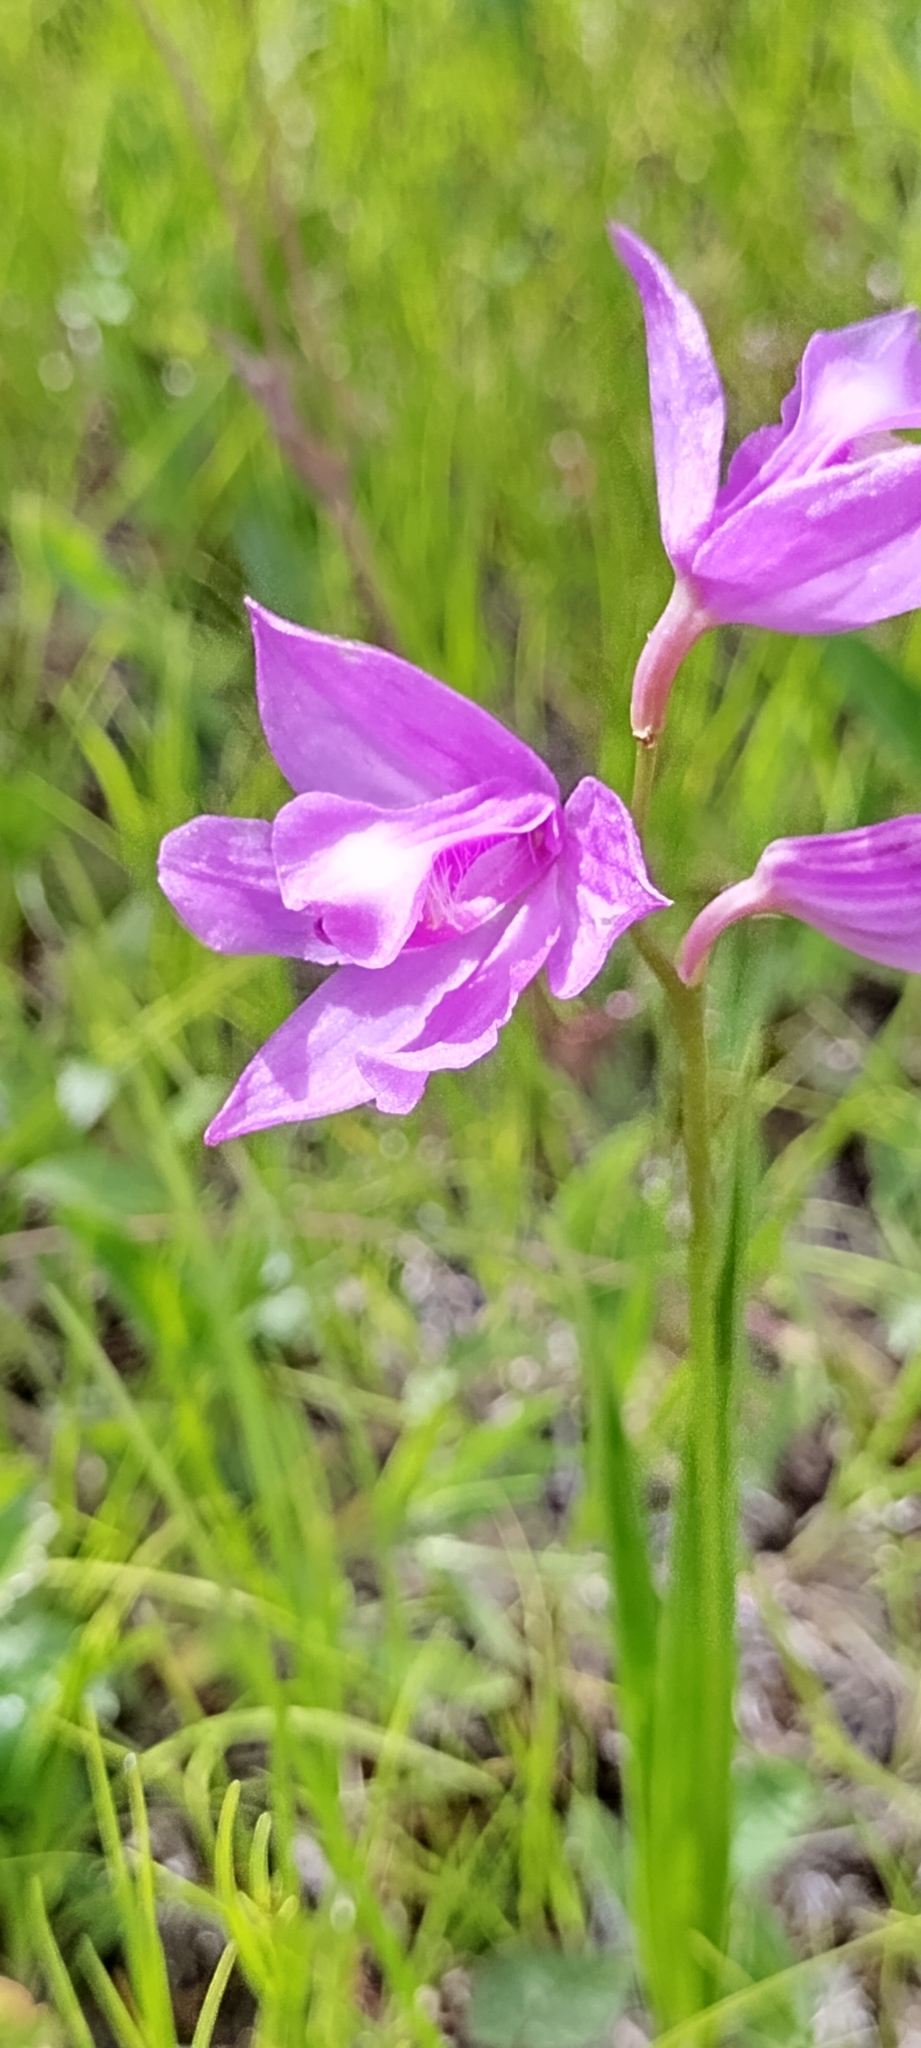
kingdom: Plantae
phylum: Tracheophyta
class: Liliopsida
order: Asparagales
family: Orchidaceae
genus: Calopogon
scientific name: Calopogon tuberosus
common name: Grass-pink
